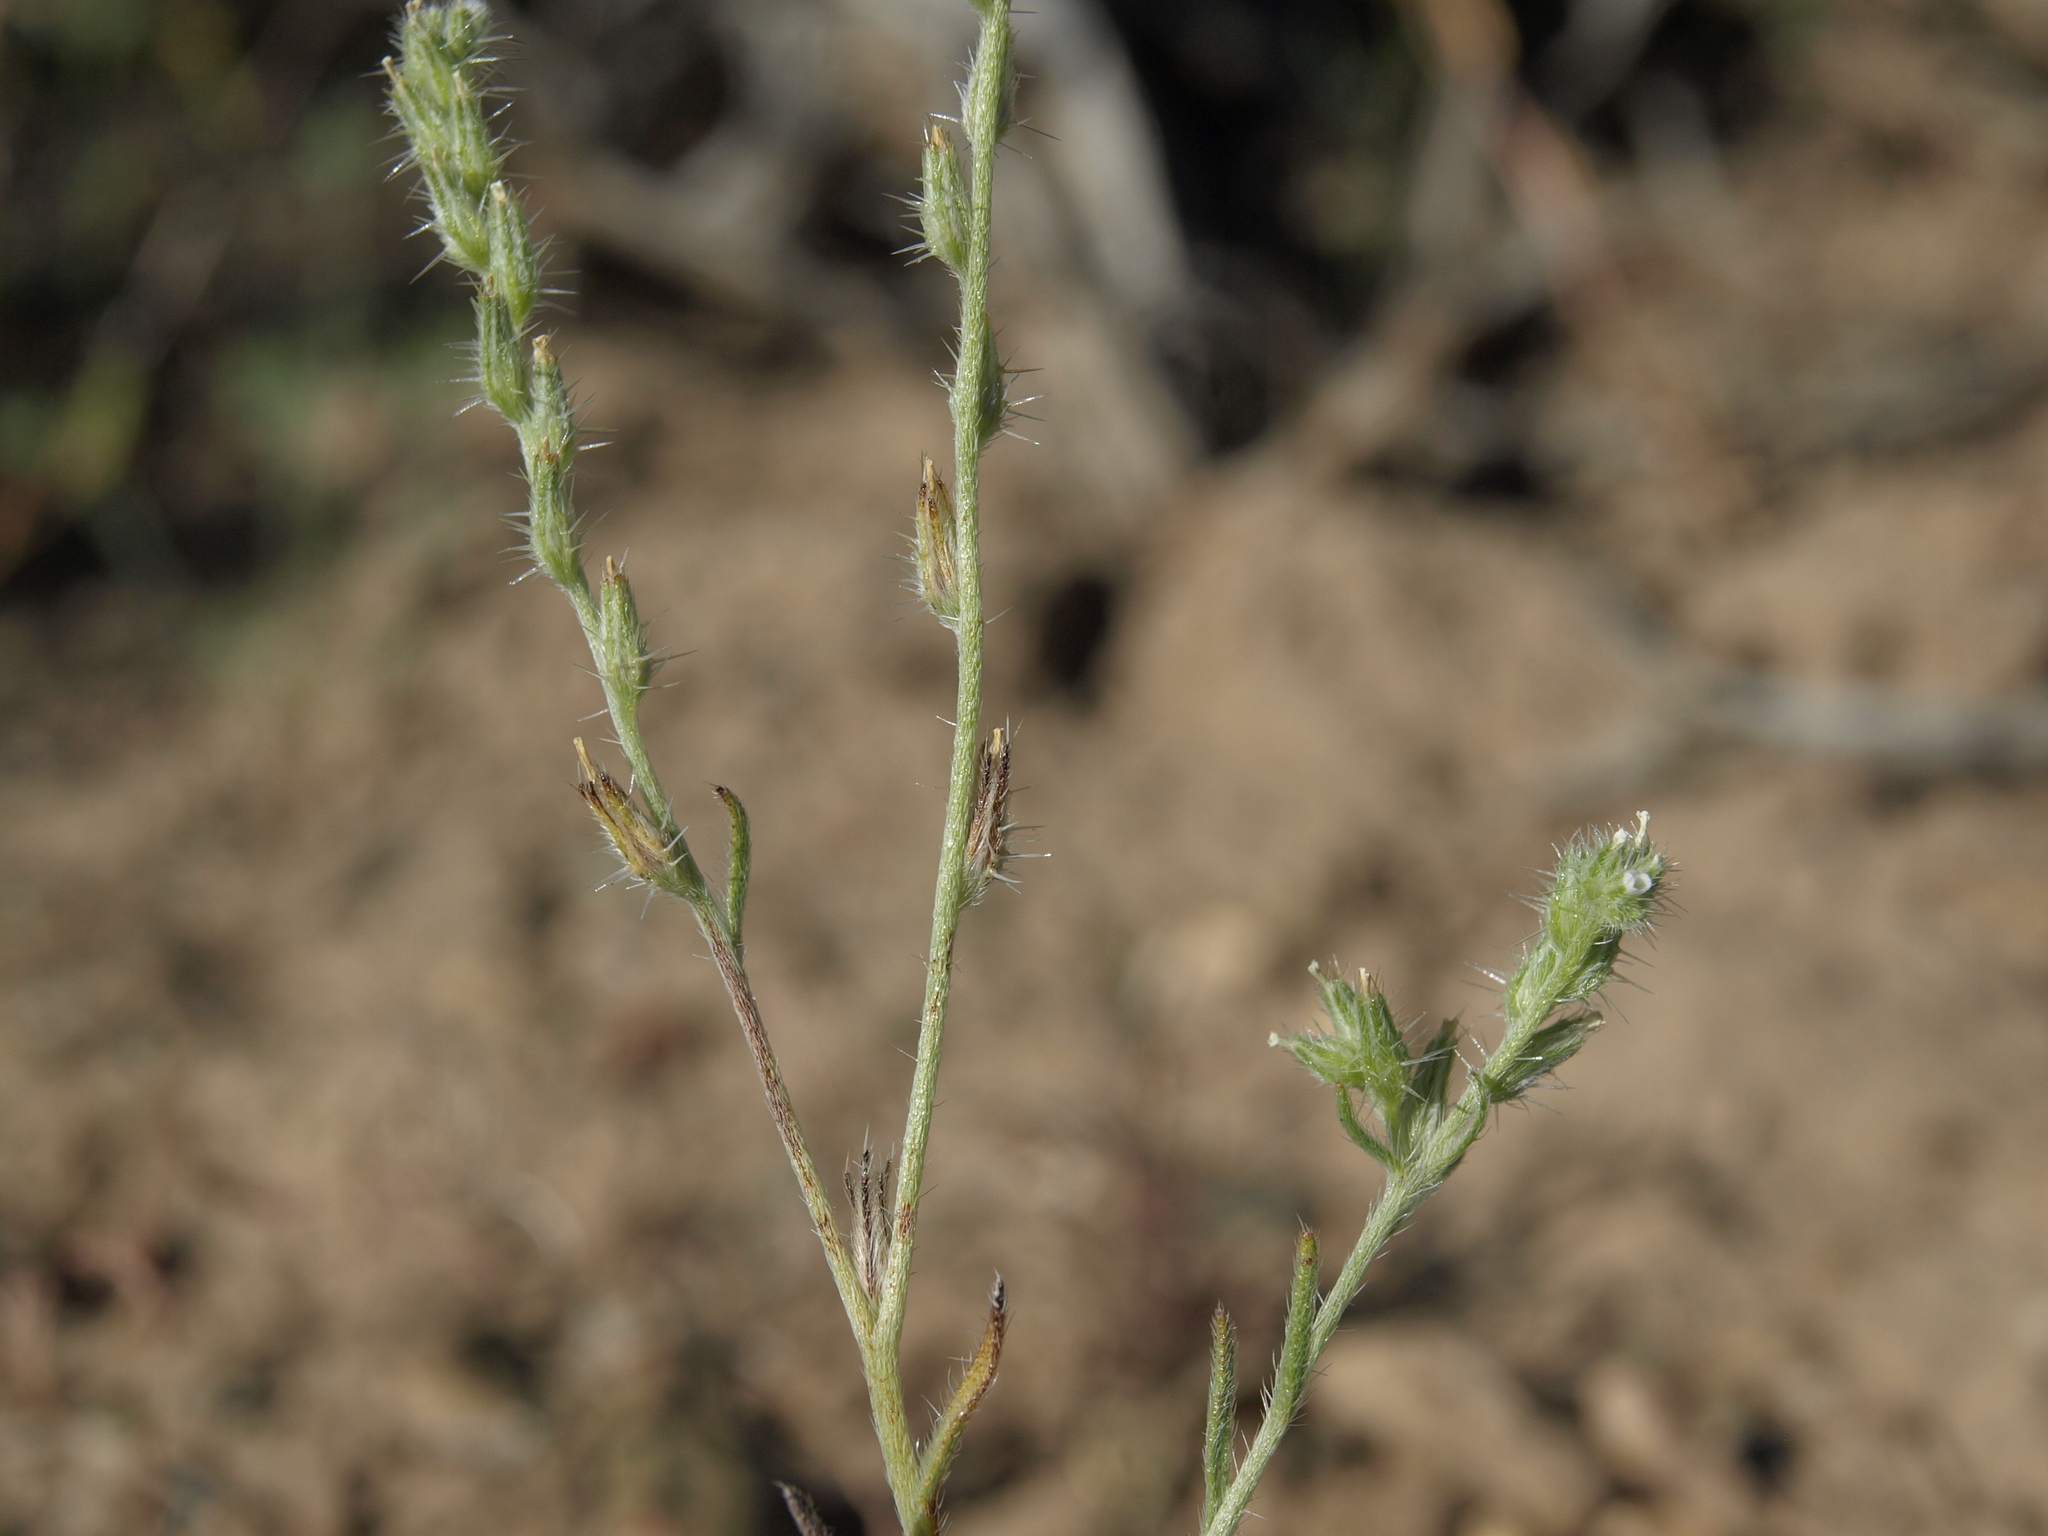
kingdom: Plantae
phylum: Tracheophyta
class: Magnoliopsida
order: Boraginales
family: Boraginaceae
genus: Cryptantha
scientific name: Cryptantha scoparia
